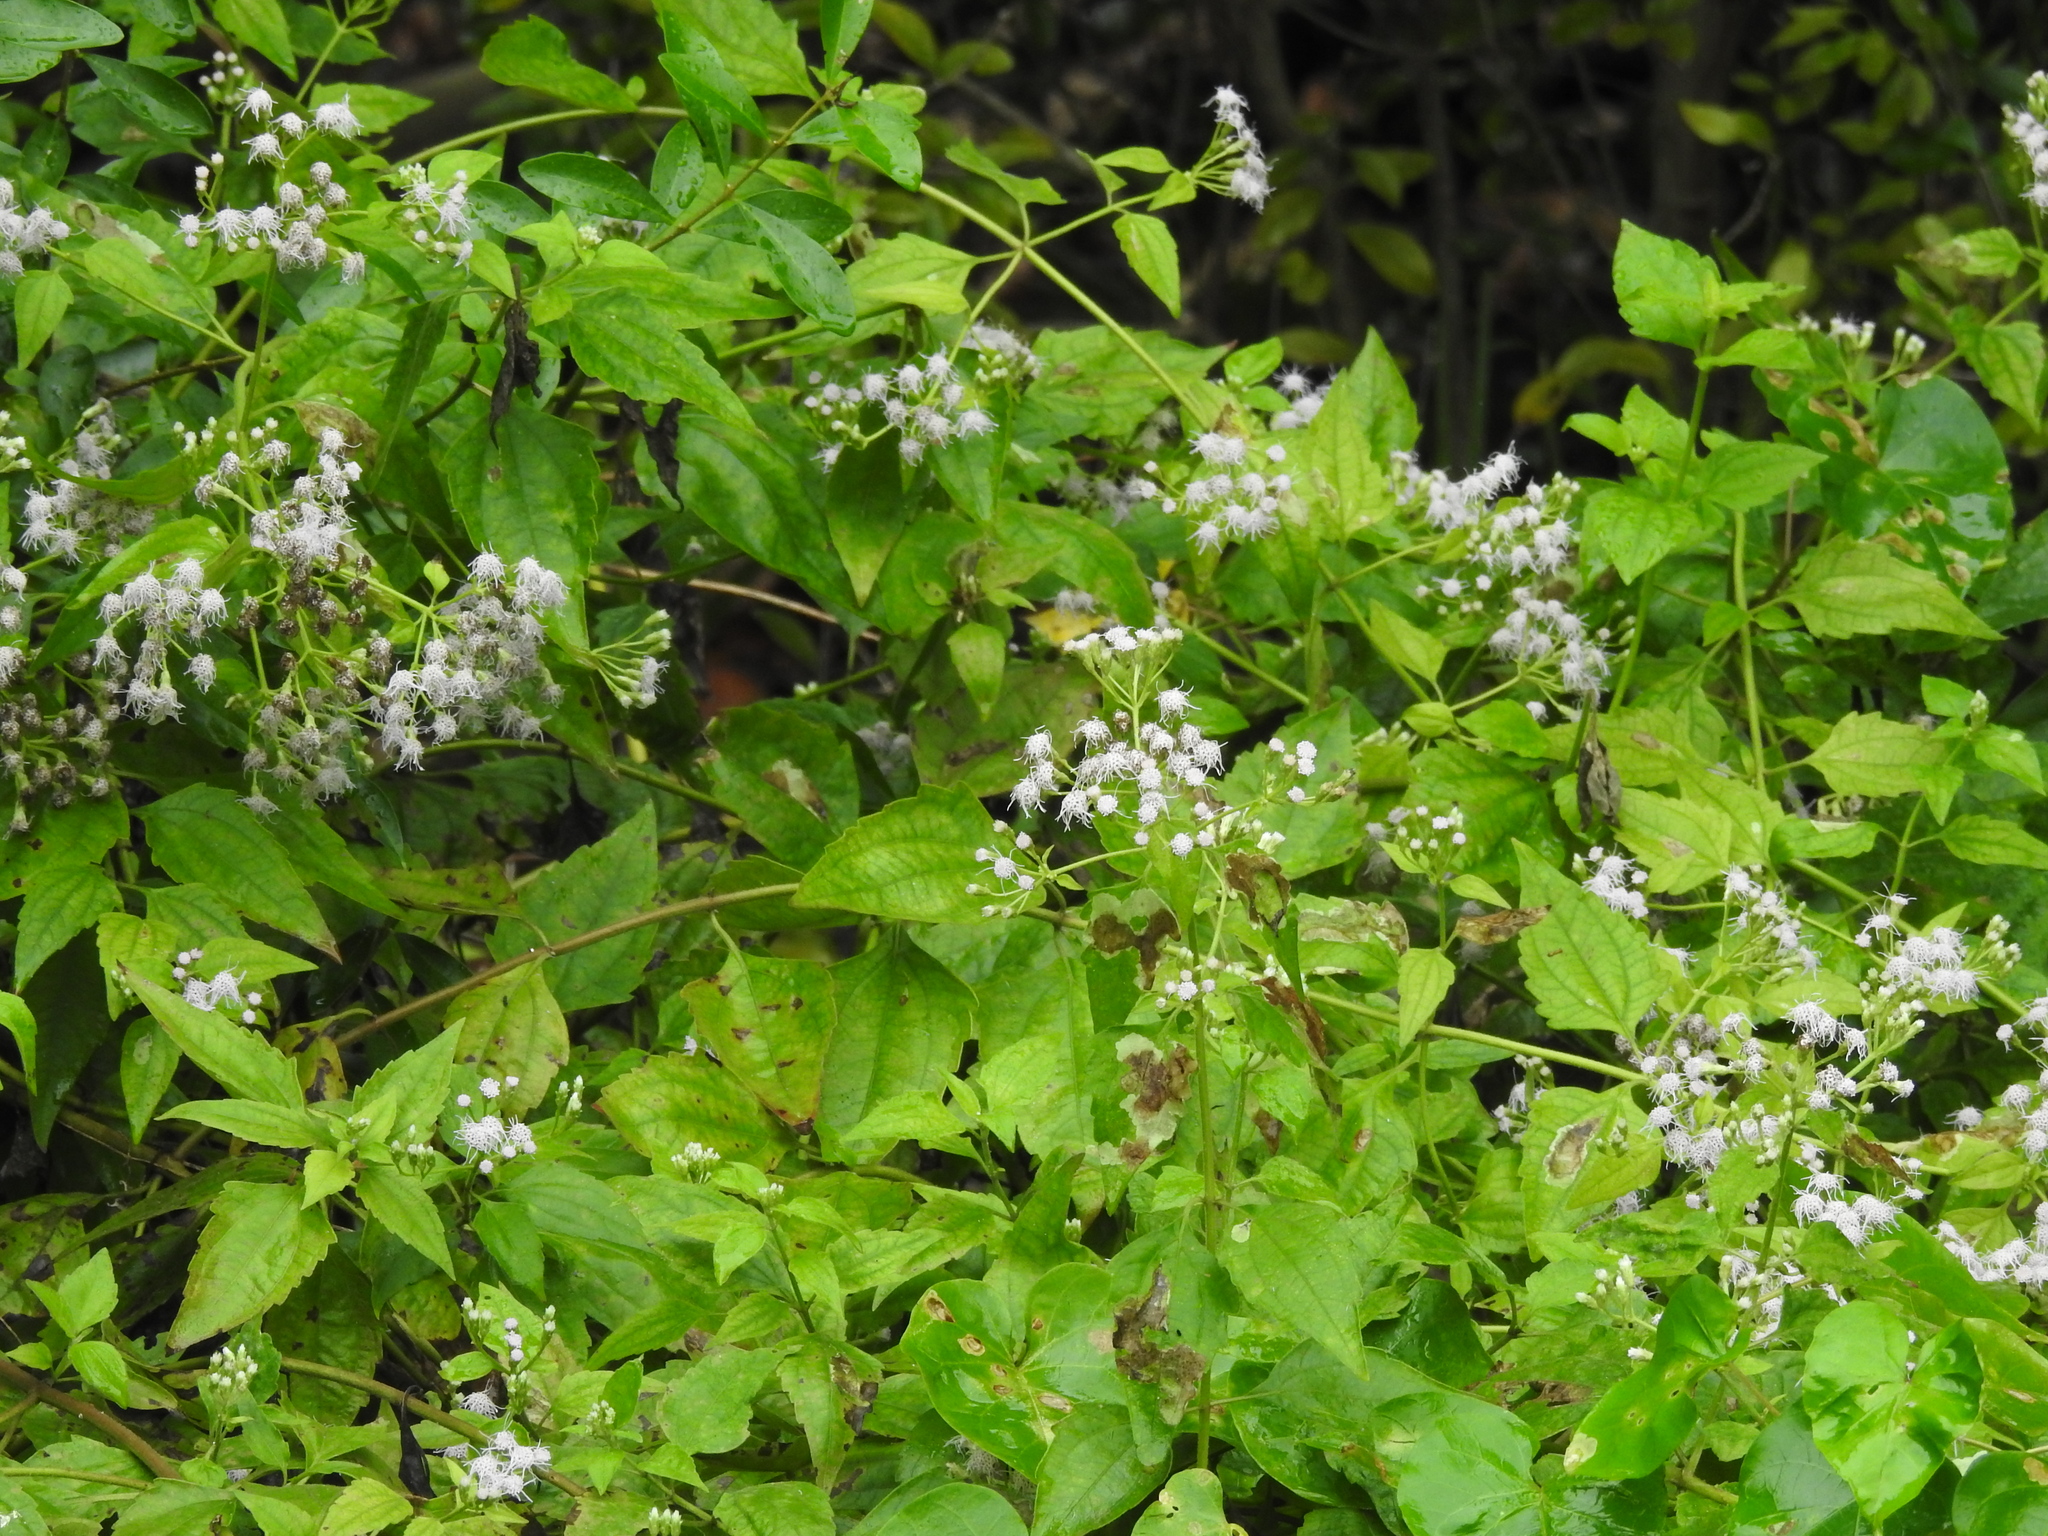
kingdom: Plantae
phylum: Tracheophyta
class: Magnoliopsida
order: Asterales
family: Asteraceae
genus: Chromolaena
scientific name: Chromolaena odorata
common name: Siamweed
